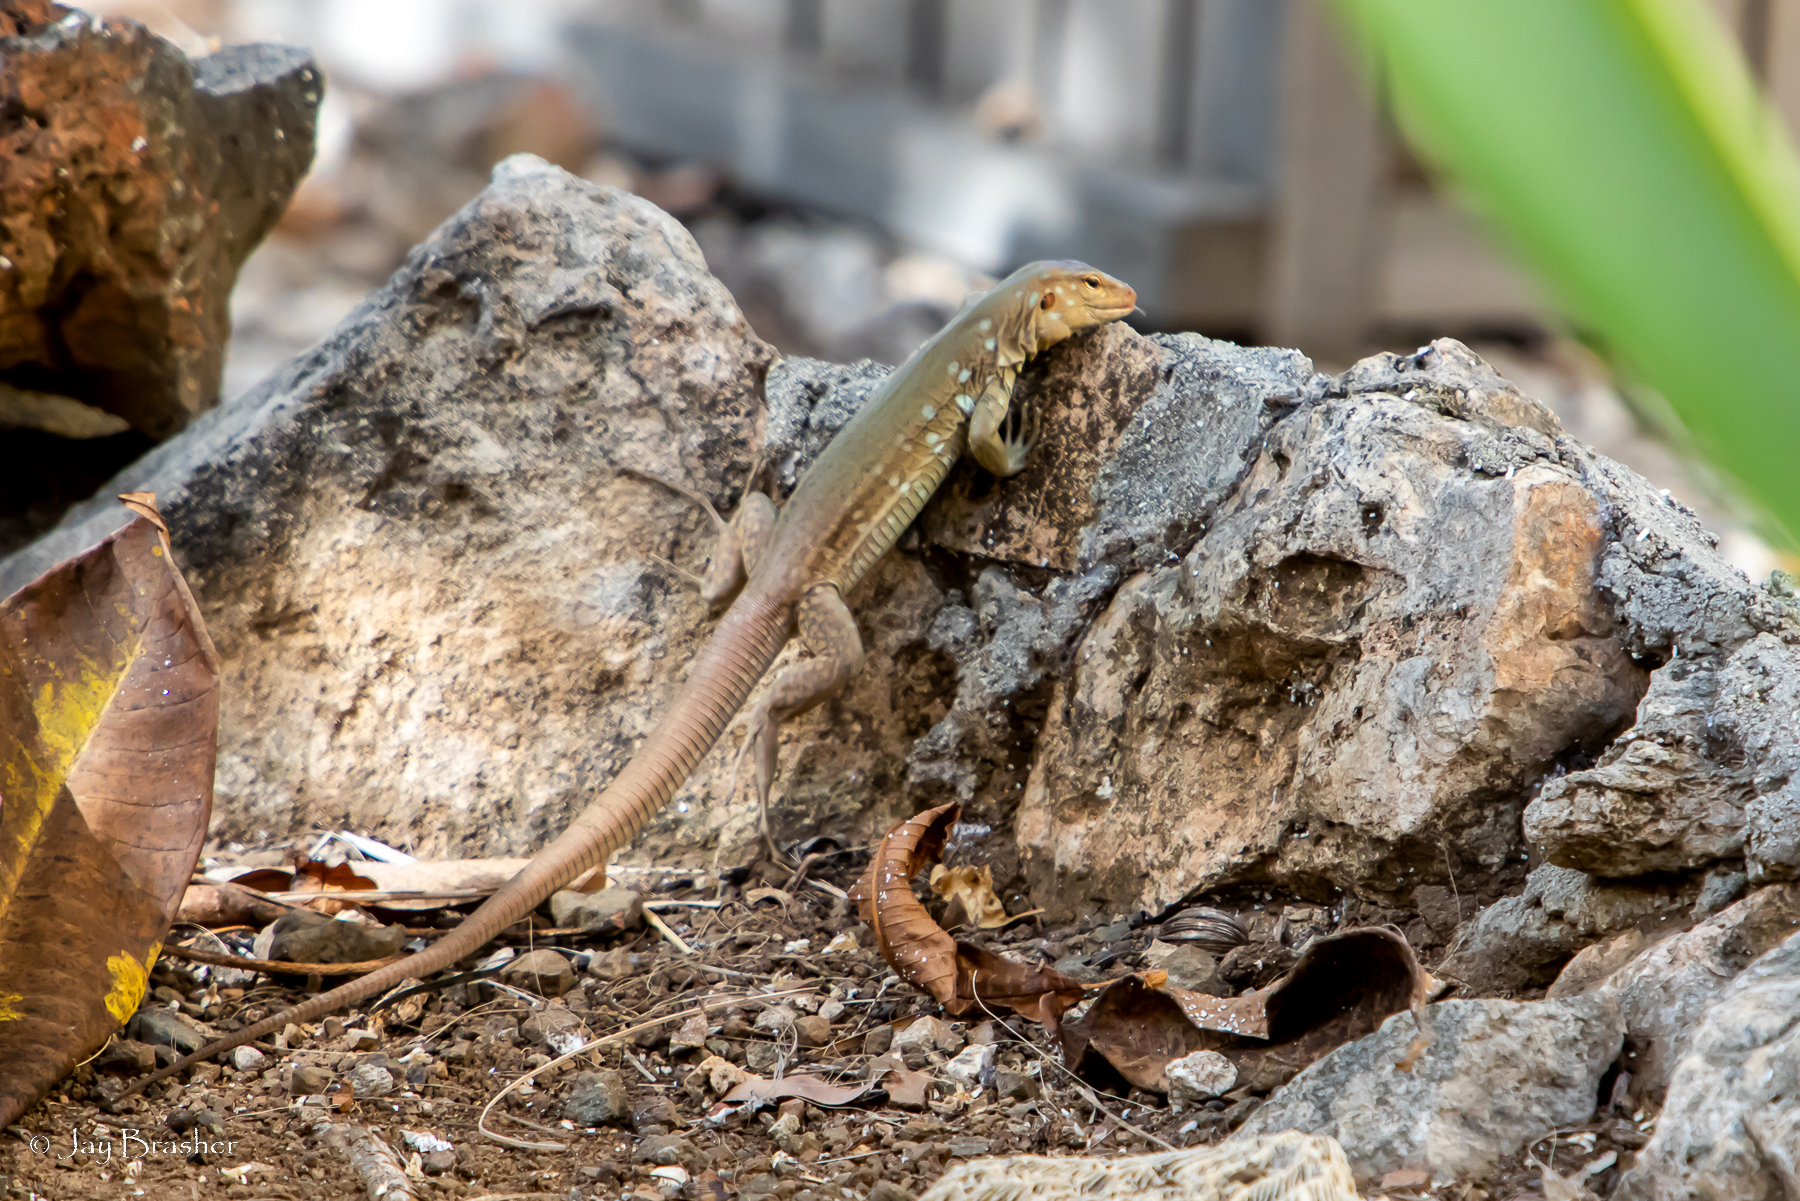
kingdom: Animalia
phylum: Chordata
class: Squamata
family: Teiidae
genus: Cnemidophorus
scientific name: Cnemidophorus ruthveni
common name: Bonaire whiptail
